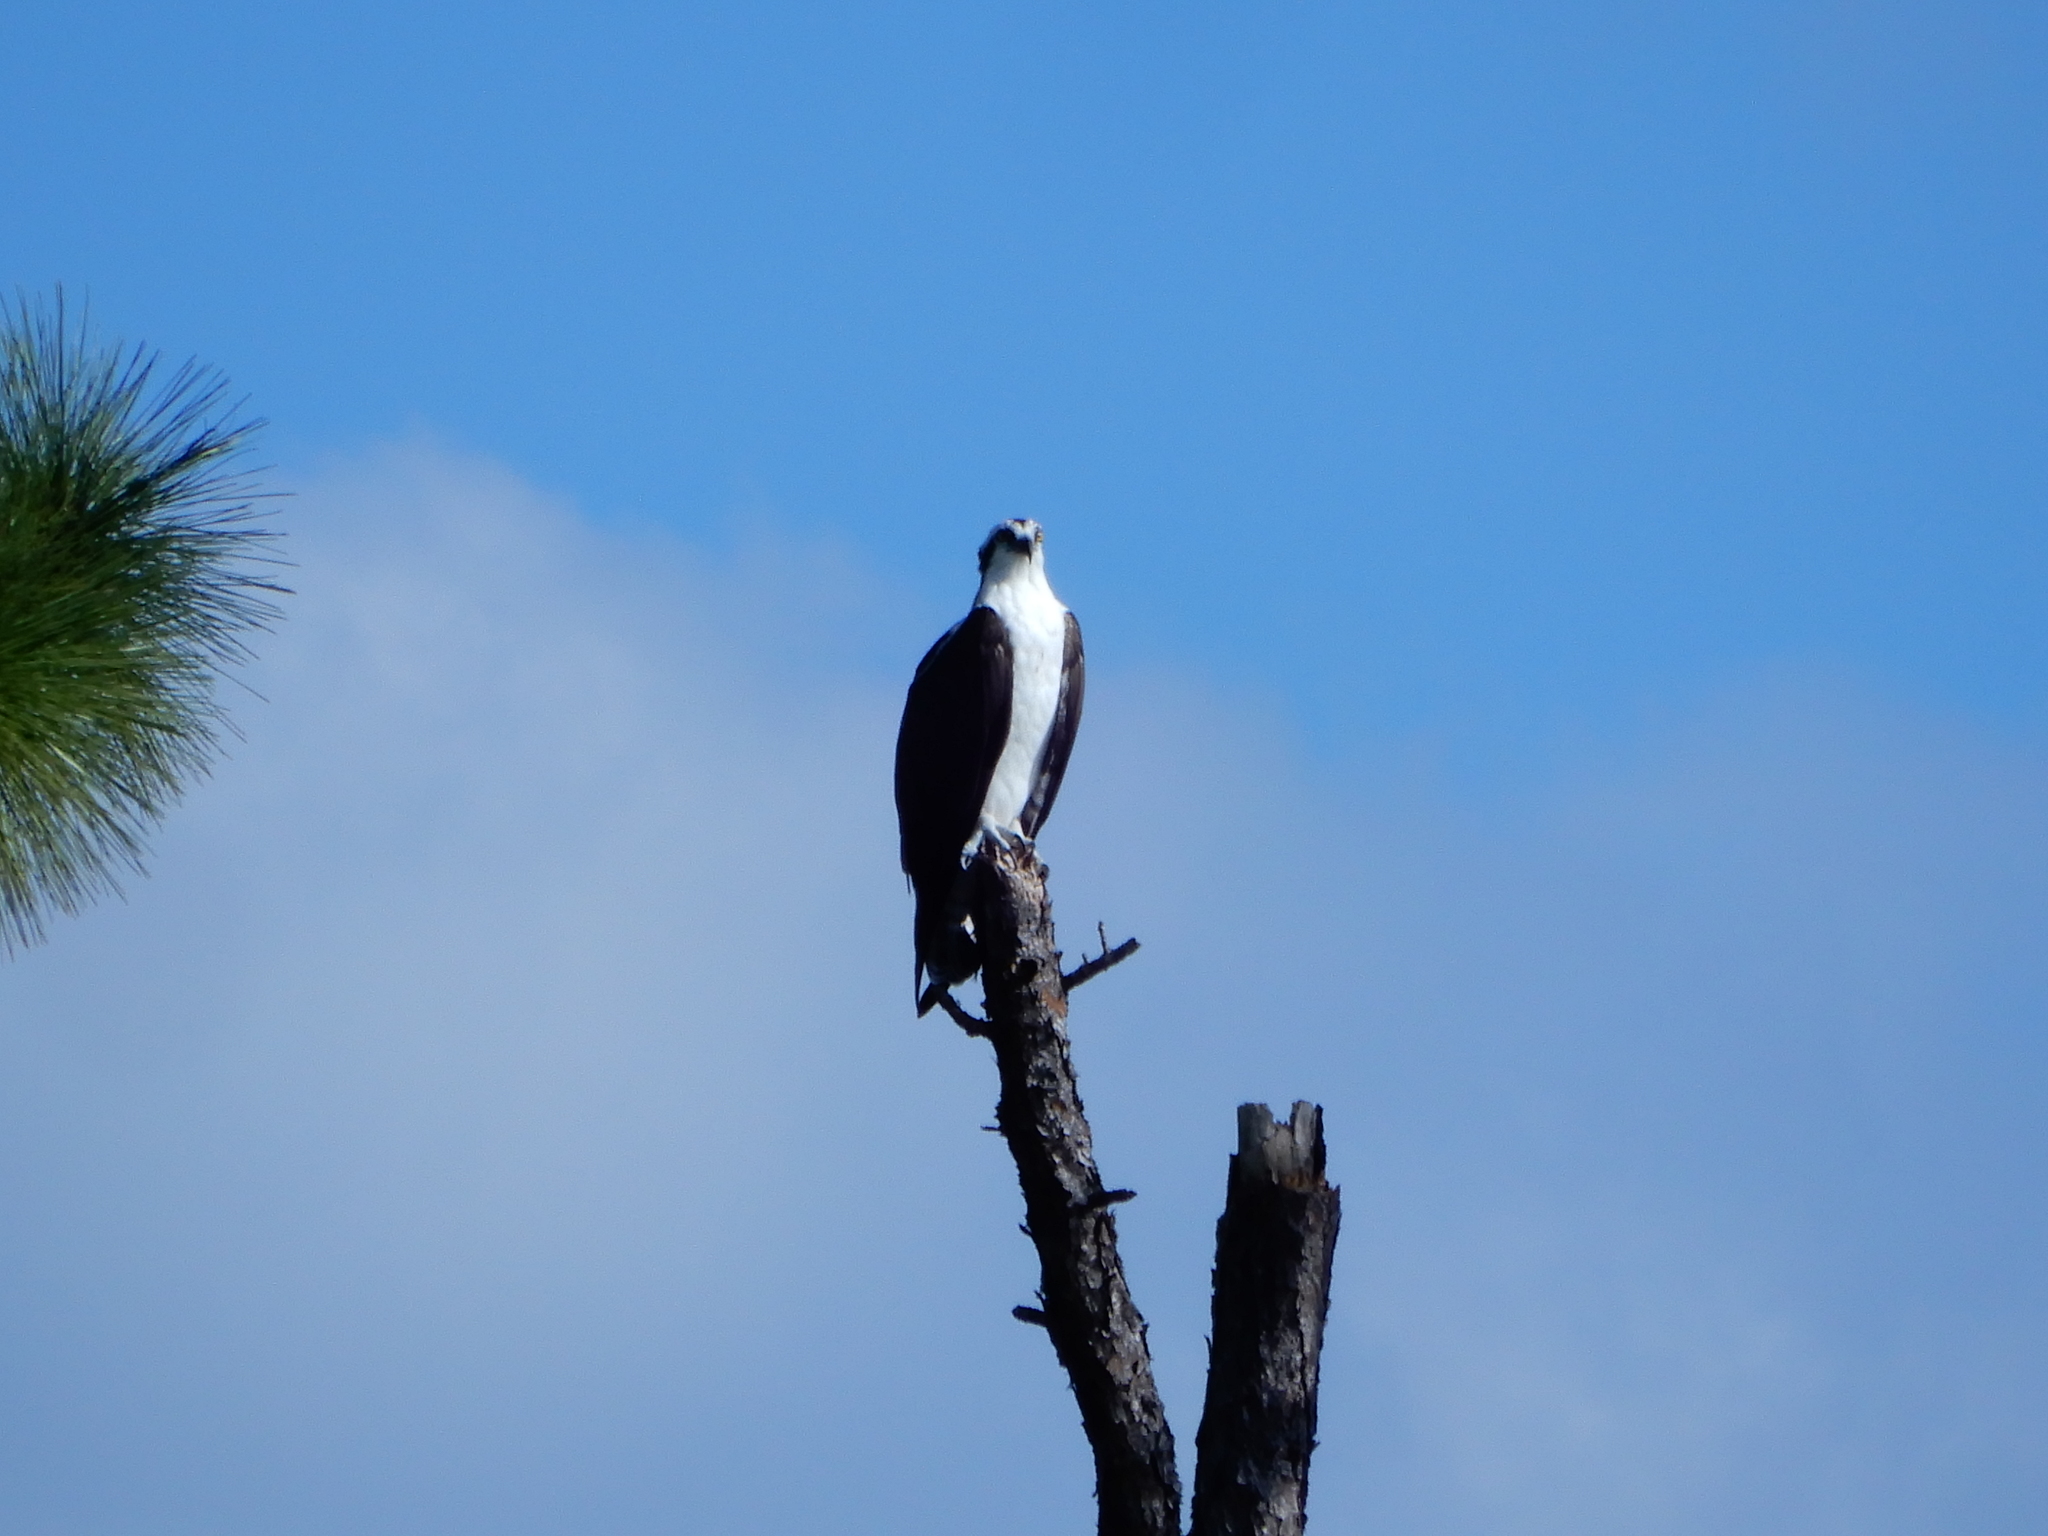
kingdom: Animalia
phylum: Chordata
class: Aves
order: Accipitriformes
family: Pandionidae
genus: Pandion
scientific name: Pandion haliaetus
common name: Osprey
